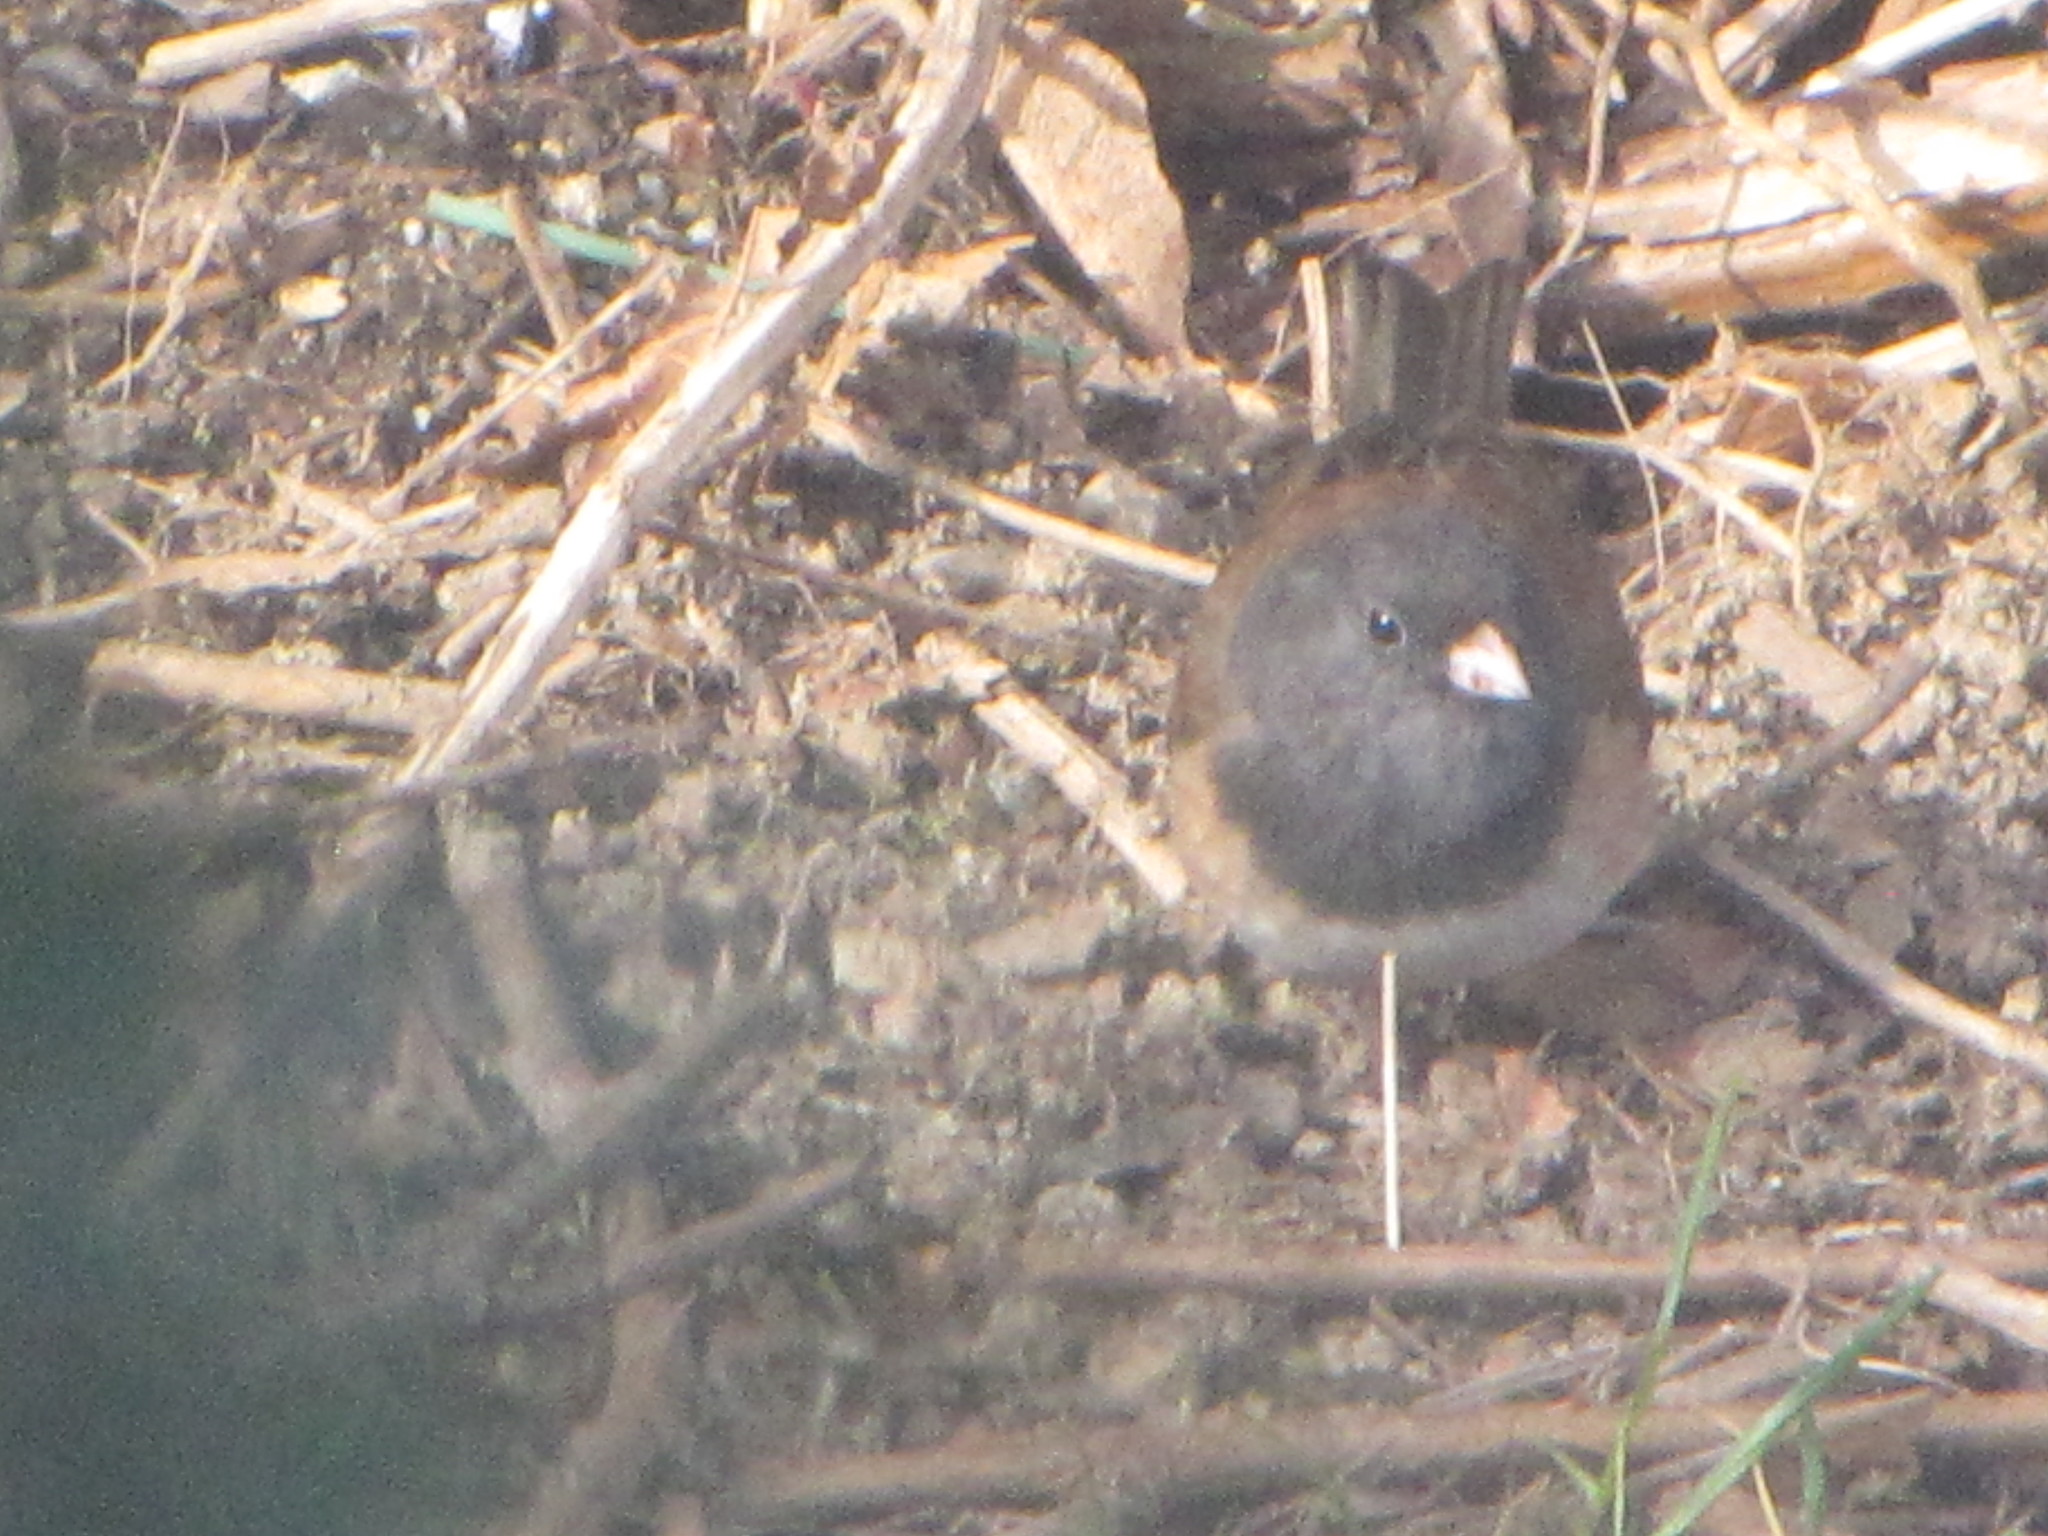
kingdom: Animalia
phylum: Chordata
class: Aves
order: Passeriformes
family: Passerellidae
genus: Junco
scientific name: Junco hyemalis
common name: Dark-eyed junco
